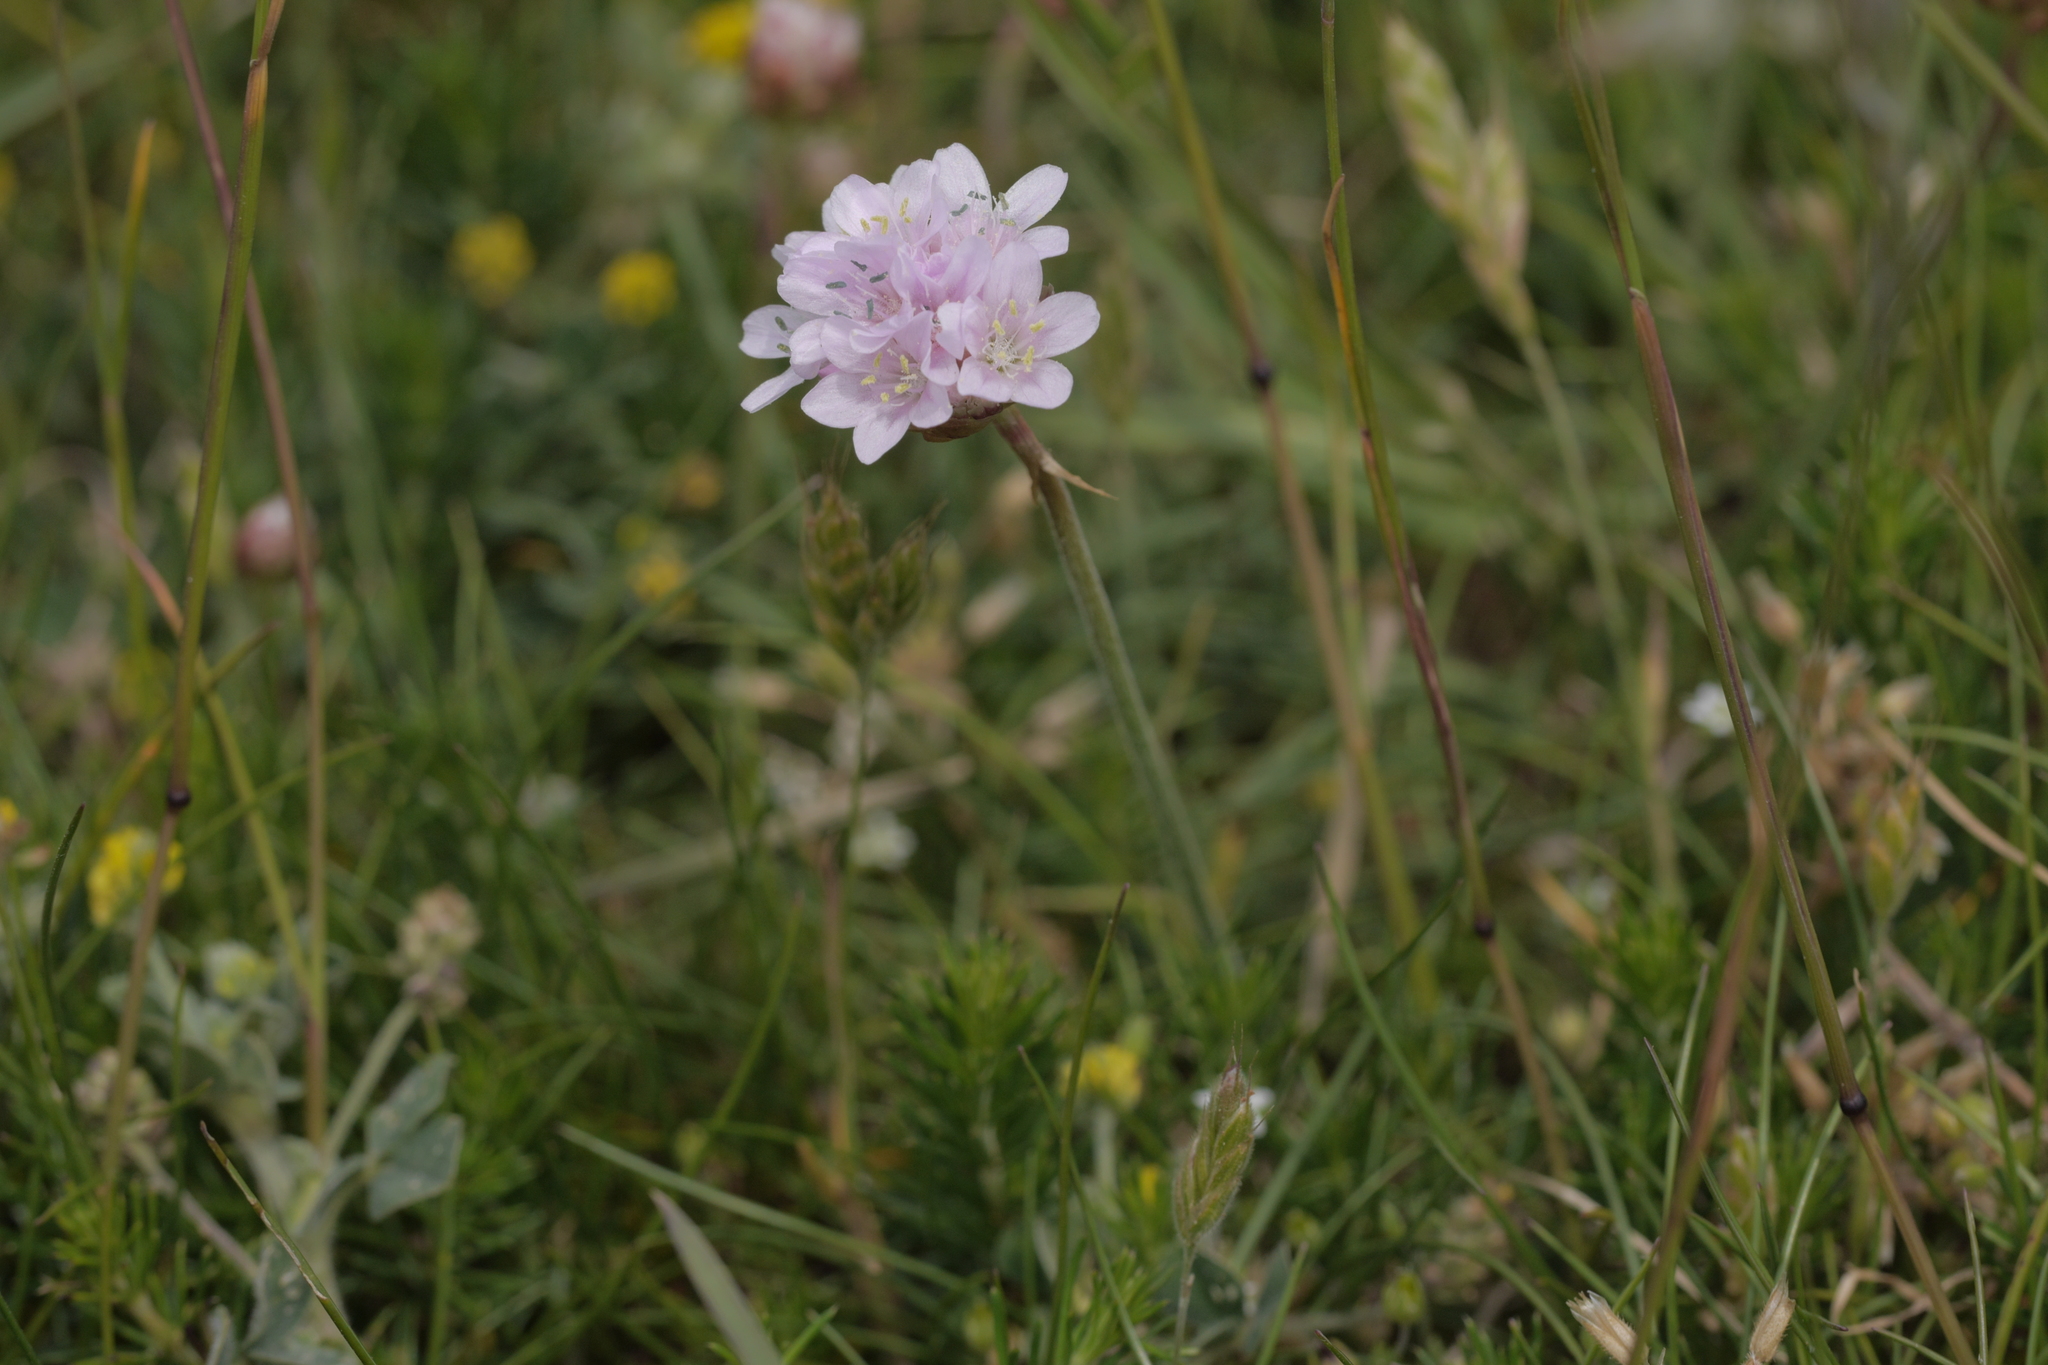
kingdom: Plantae
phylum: Tracheophyta
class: Magnoliopsida
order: Caryophyllales
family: Plumbaginaceae
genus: Armeria
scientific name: Armeria maritima
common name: Thrift
